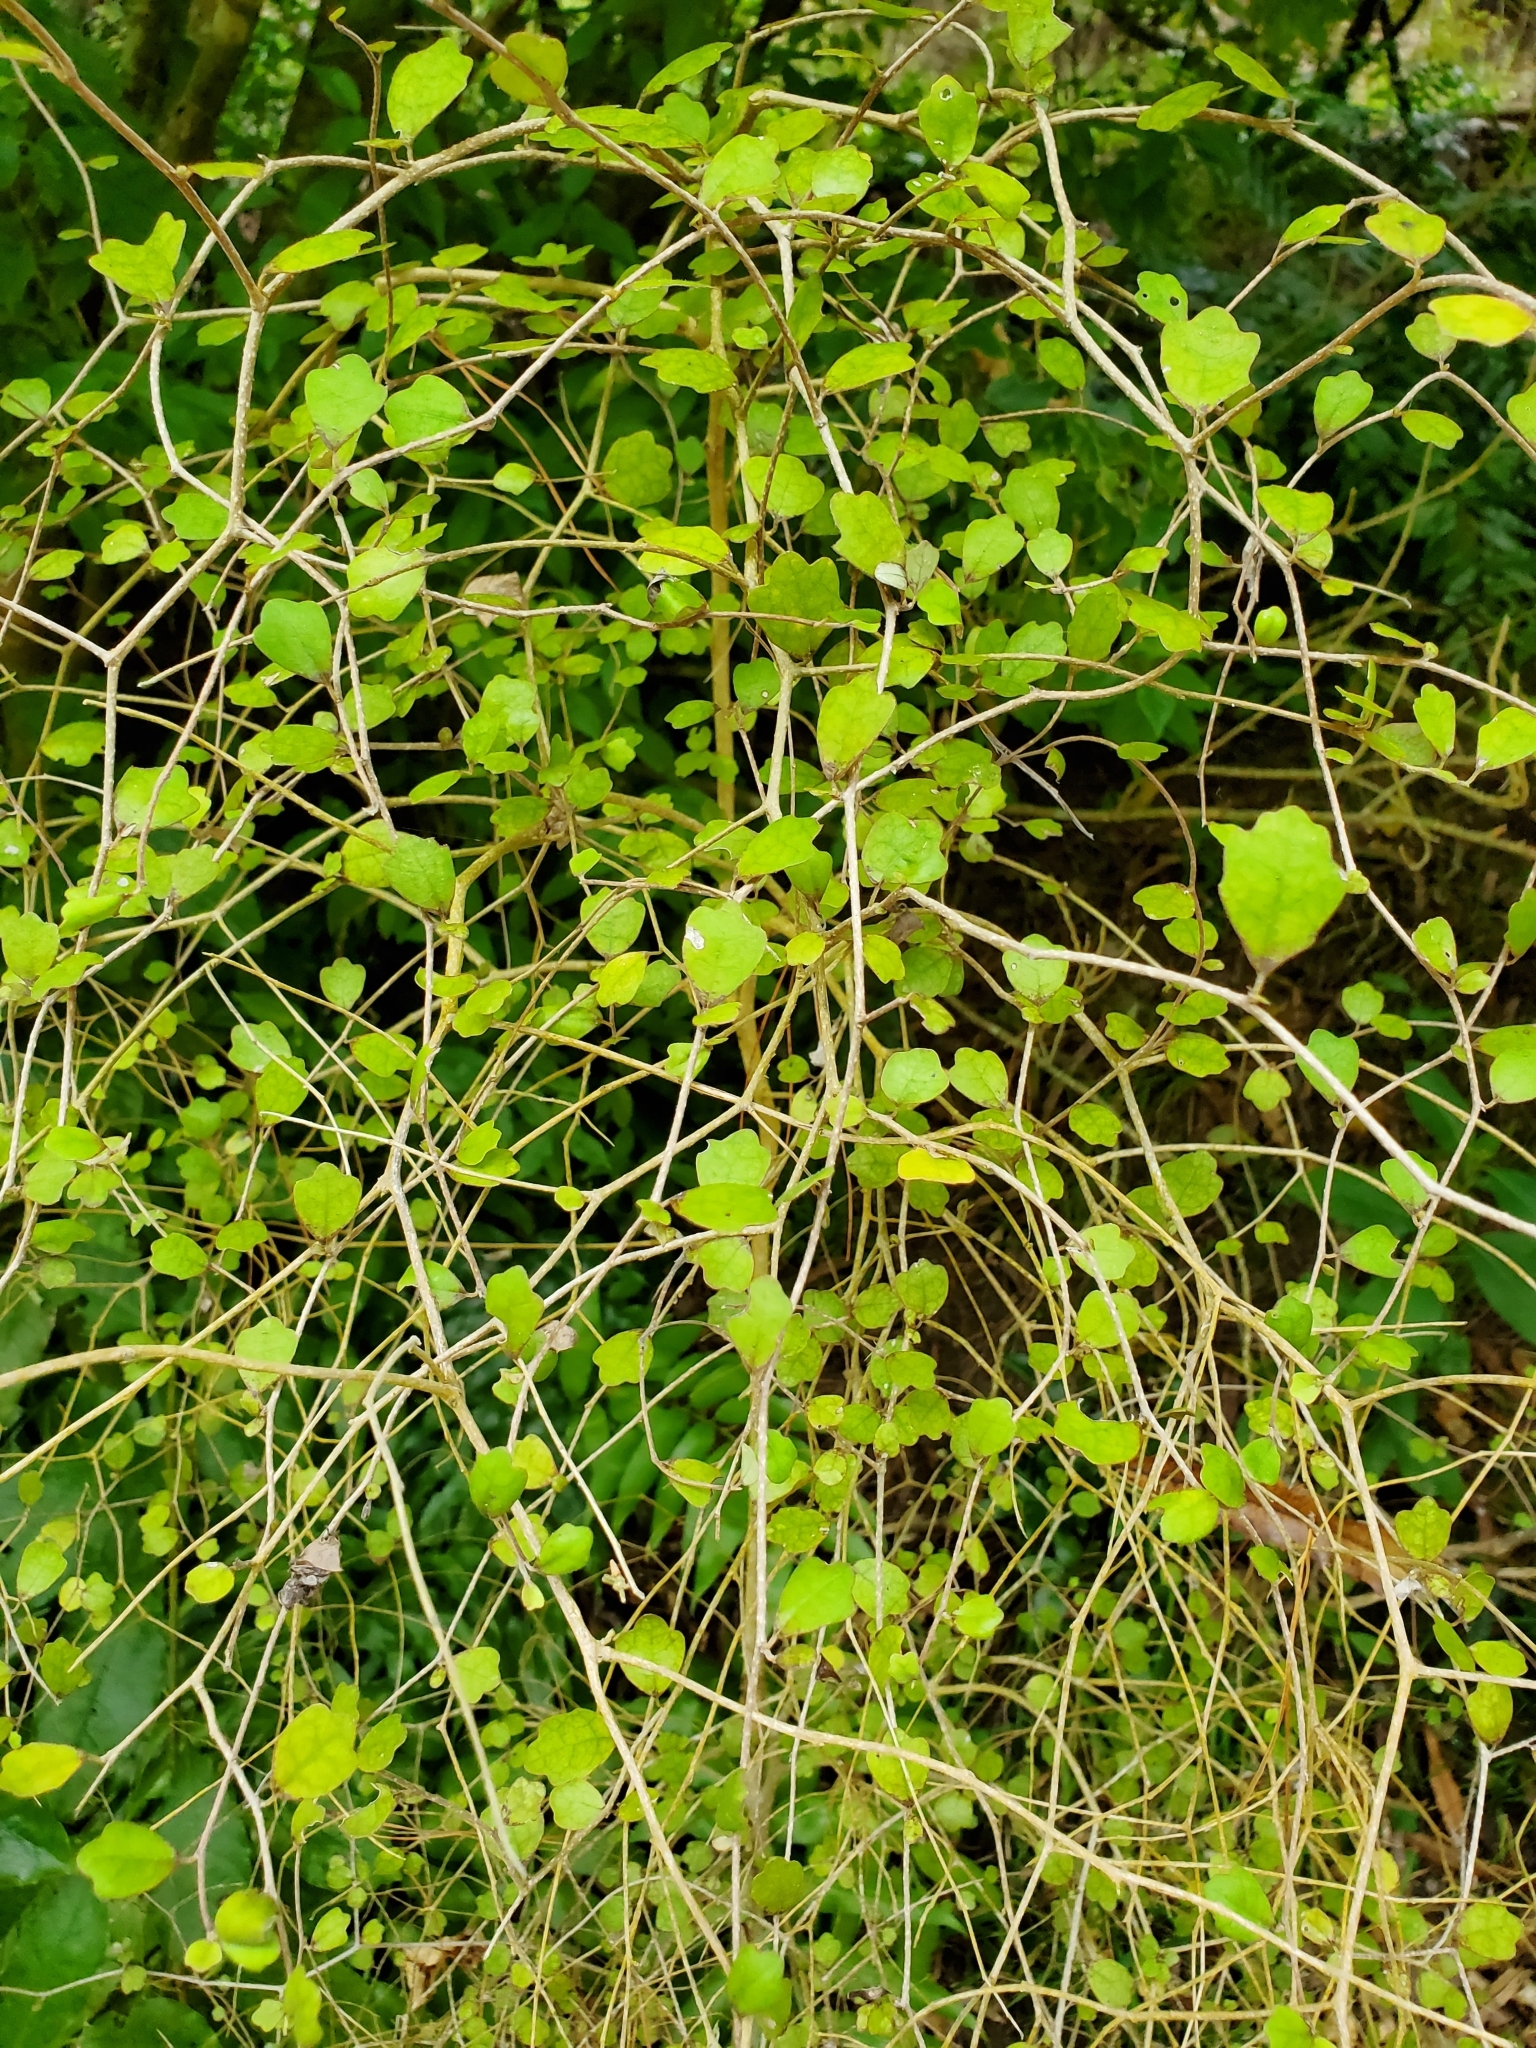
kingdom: Plantae
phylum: Tracheophyta
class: Magnoliopsida
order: Apiales
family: Pennantiaceae
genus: Pennantia
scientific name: Pennantia corymbosa
